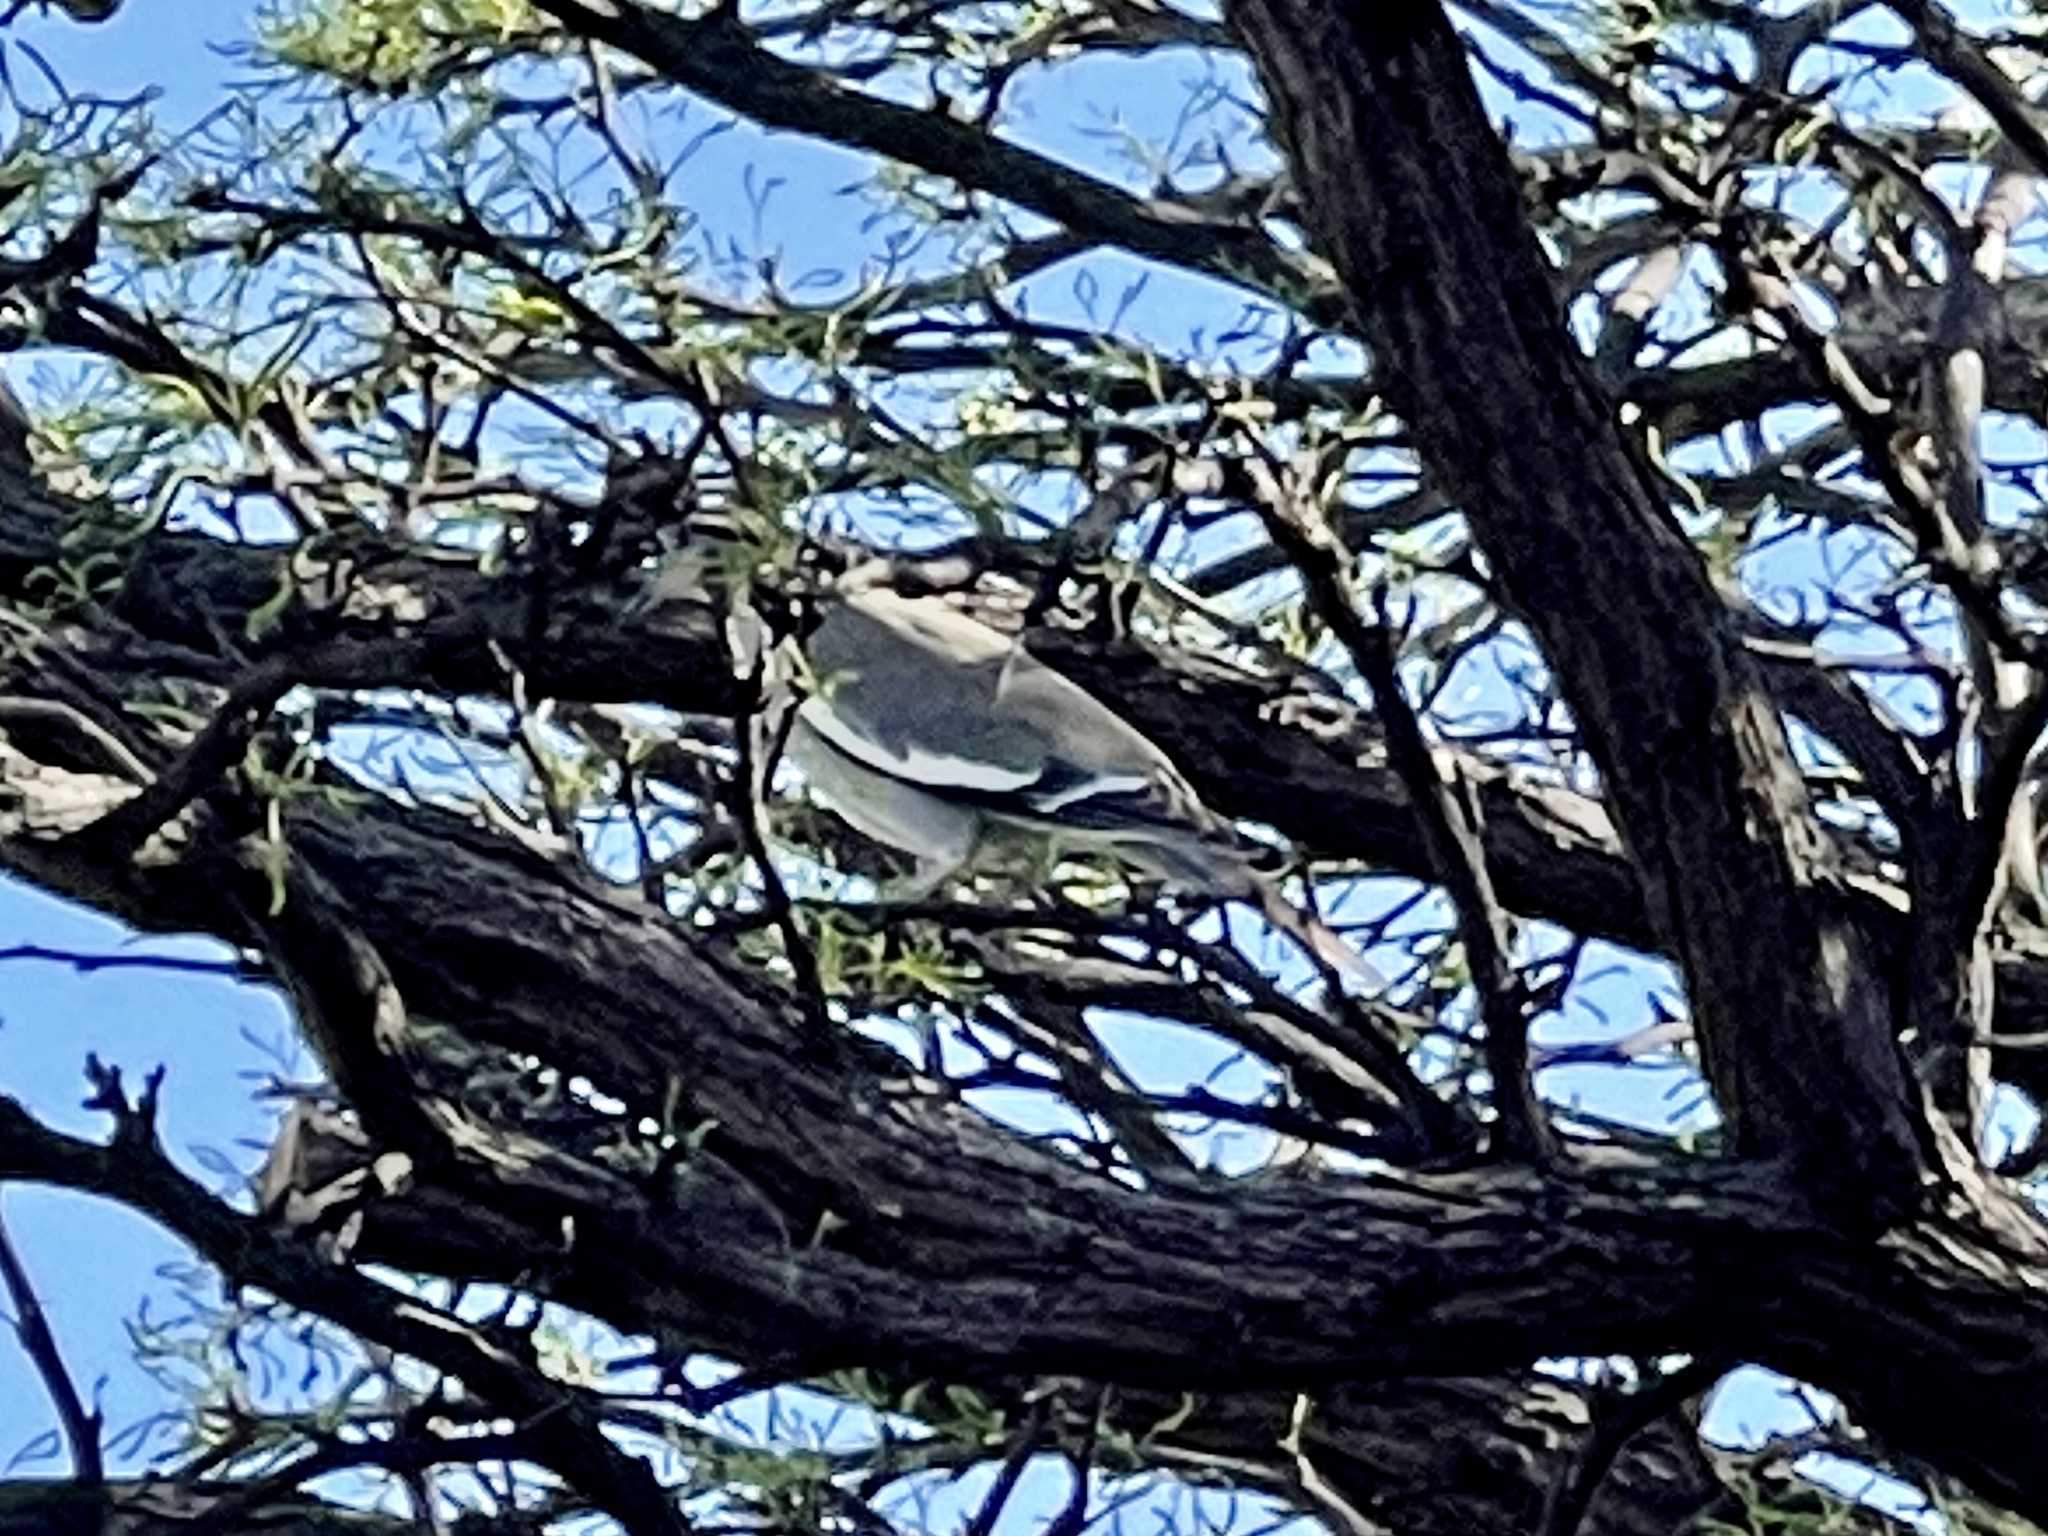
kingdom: Animalia
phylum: Chordata
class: Aves
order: Columbiformes
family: Columbidae
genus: Zenaida
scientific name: Zenaida asiatica
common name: White-winged dove
